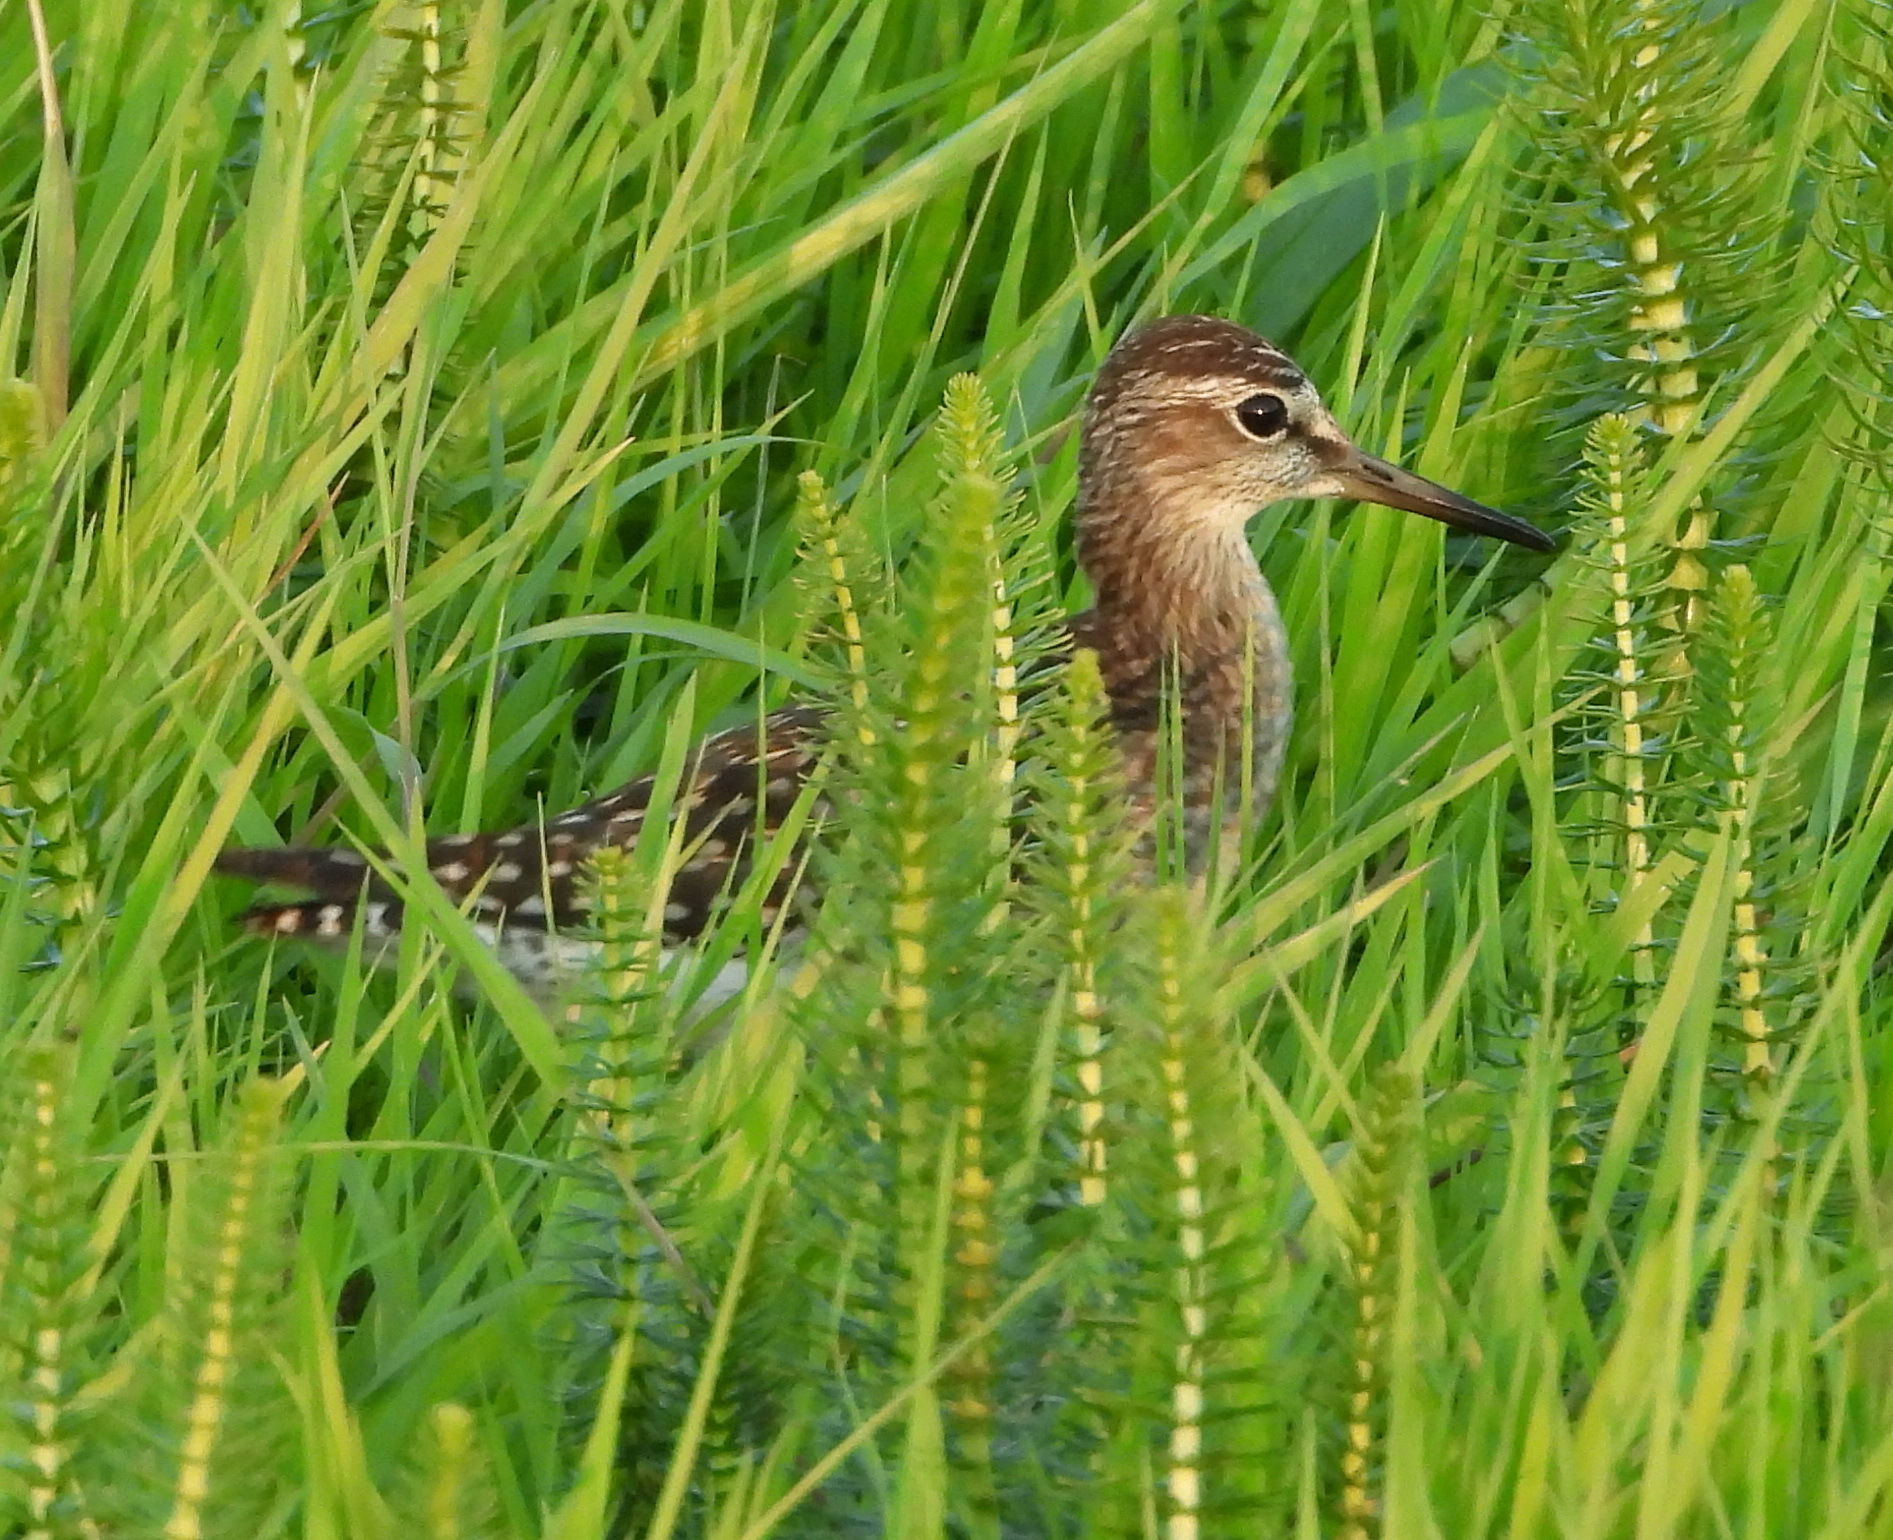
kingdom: Animalia
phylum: Chordata
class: Aves
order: Charadriiformes
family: Scolopacidae
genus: Tringa
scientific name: Tringa glareola
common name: Wood sandpiper
